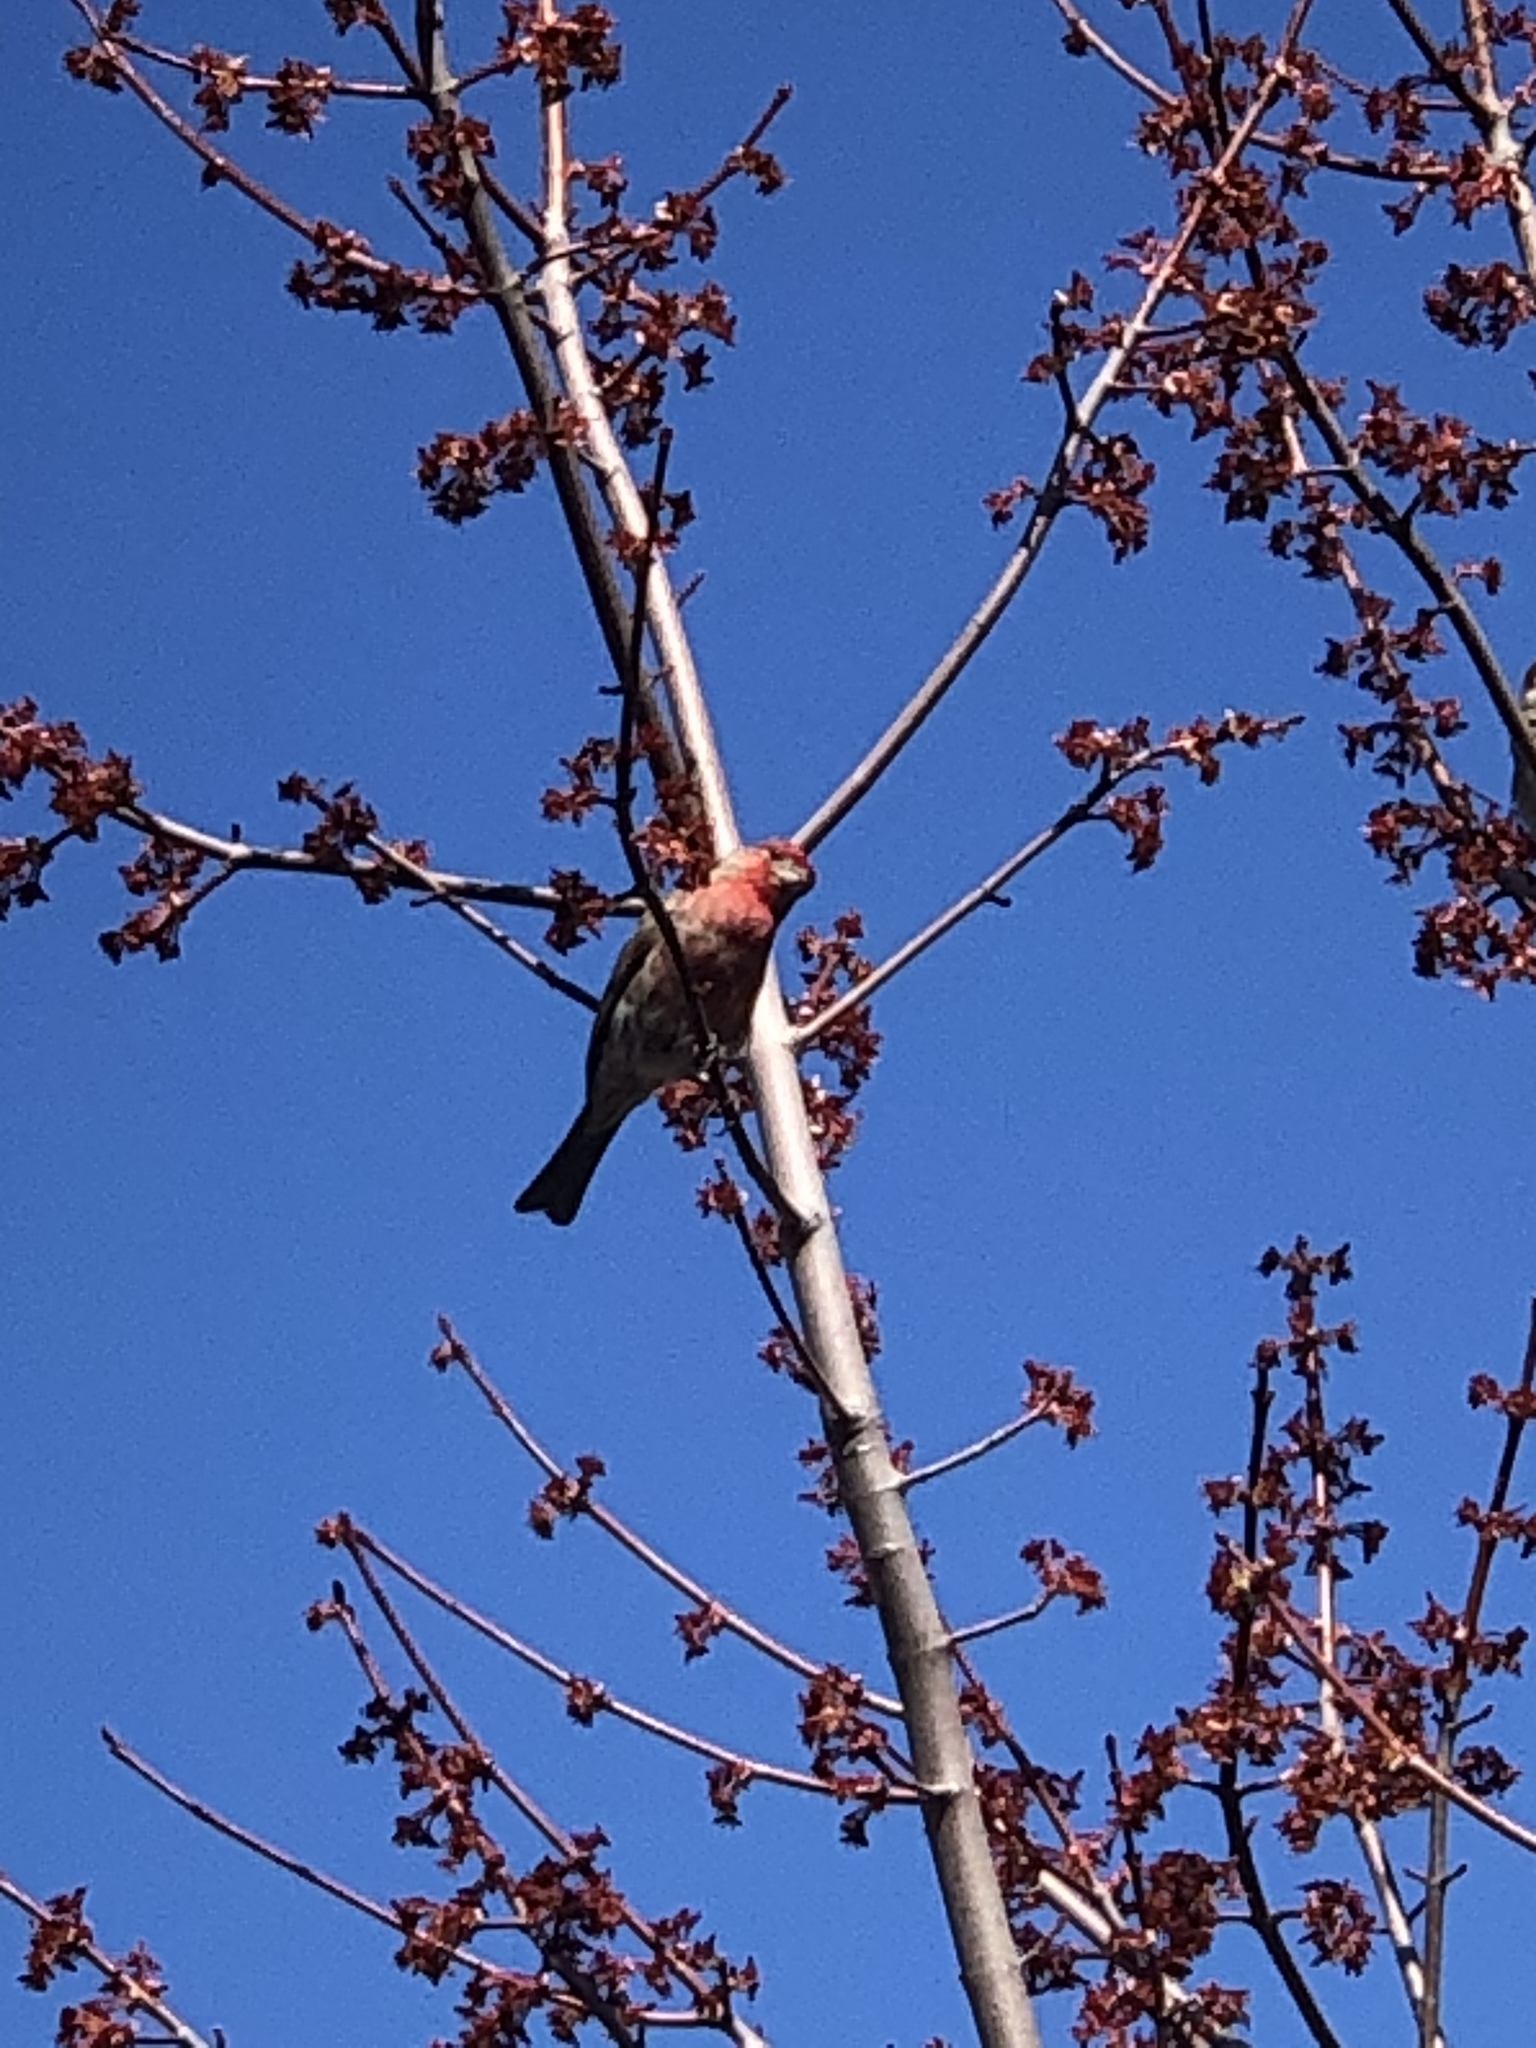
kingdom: Animalia
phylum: Chordata
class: Aves
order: Passeriformes
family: Fringillidae
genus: Haemorhous
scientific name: Haemorhous mexicanus
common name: House finch
